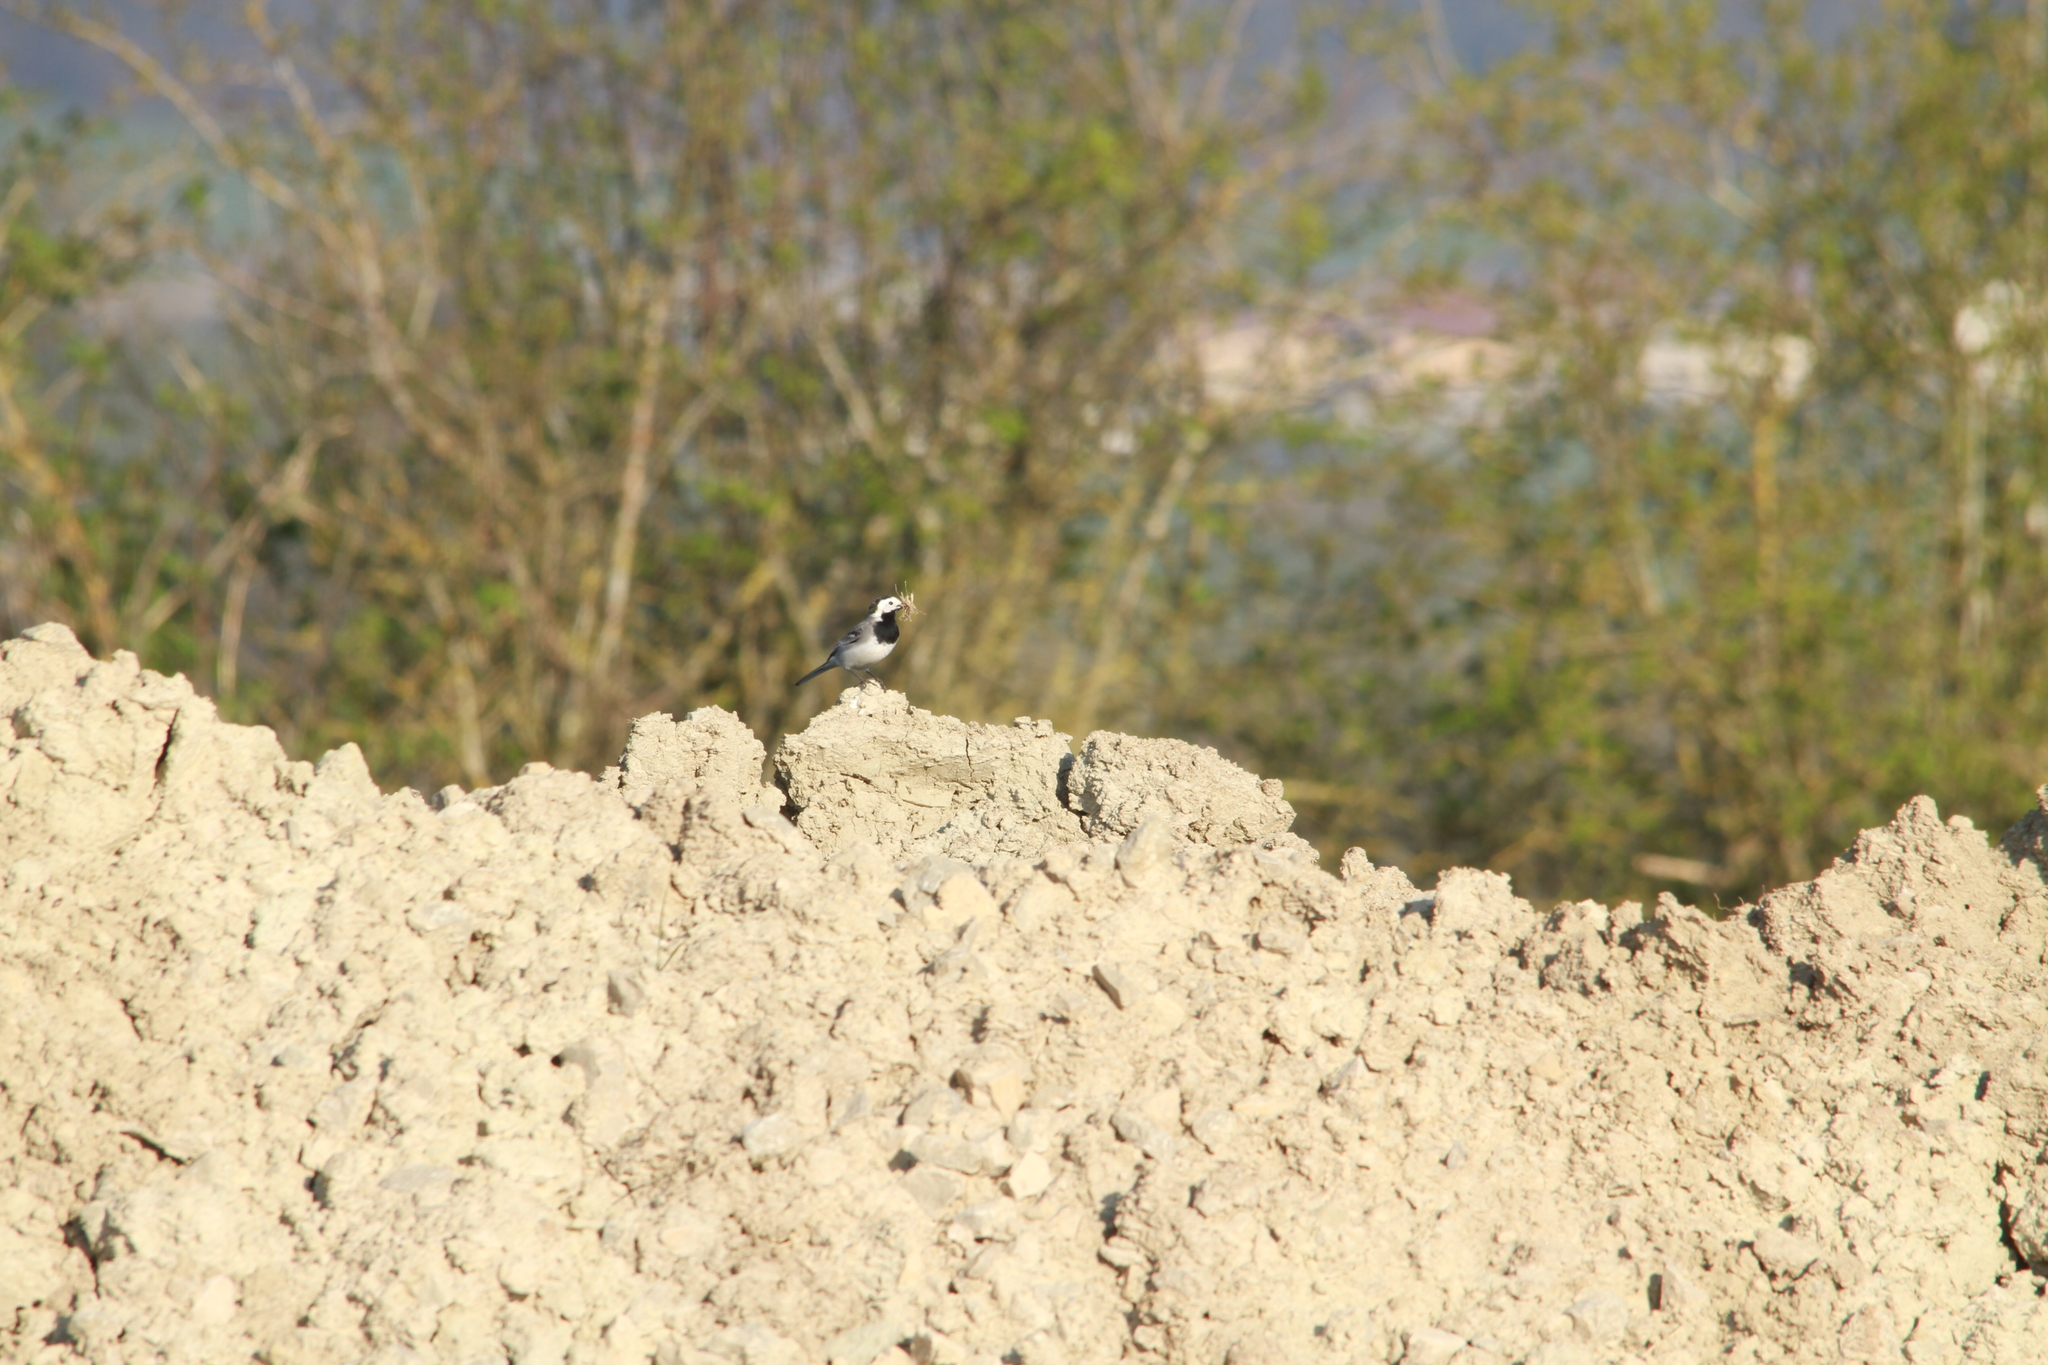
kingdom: Animalia
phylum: Chordata
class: Aves
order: Passeriformes
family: Motacillidae
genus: Motacilla
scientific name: Motacilla alba
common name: White wagtail
